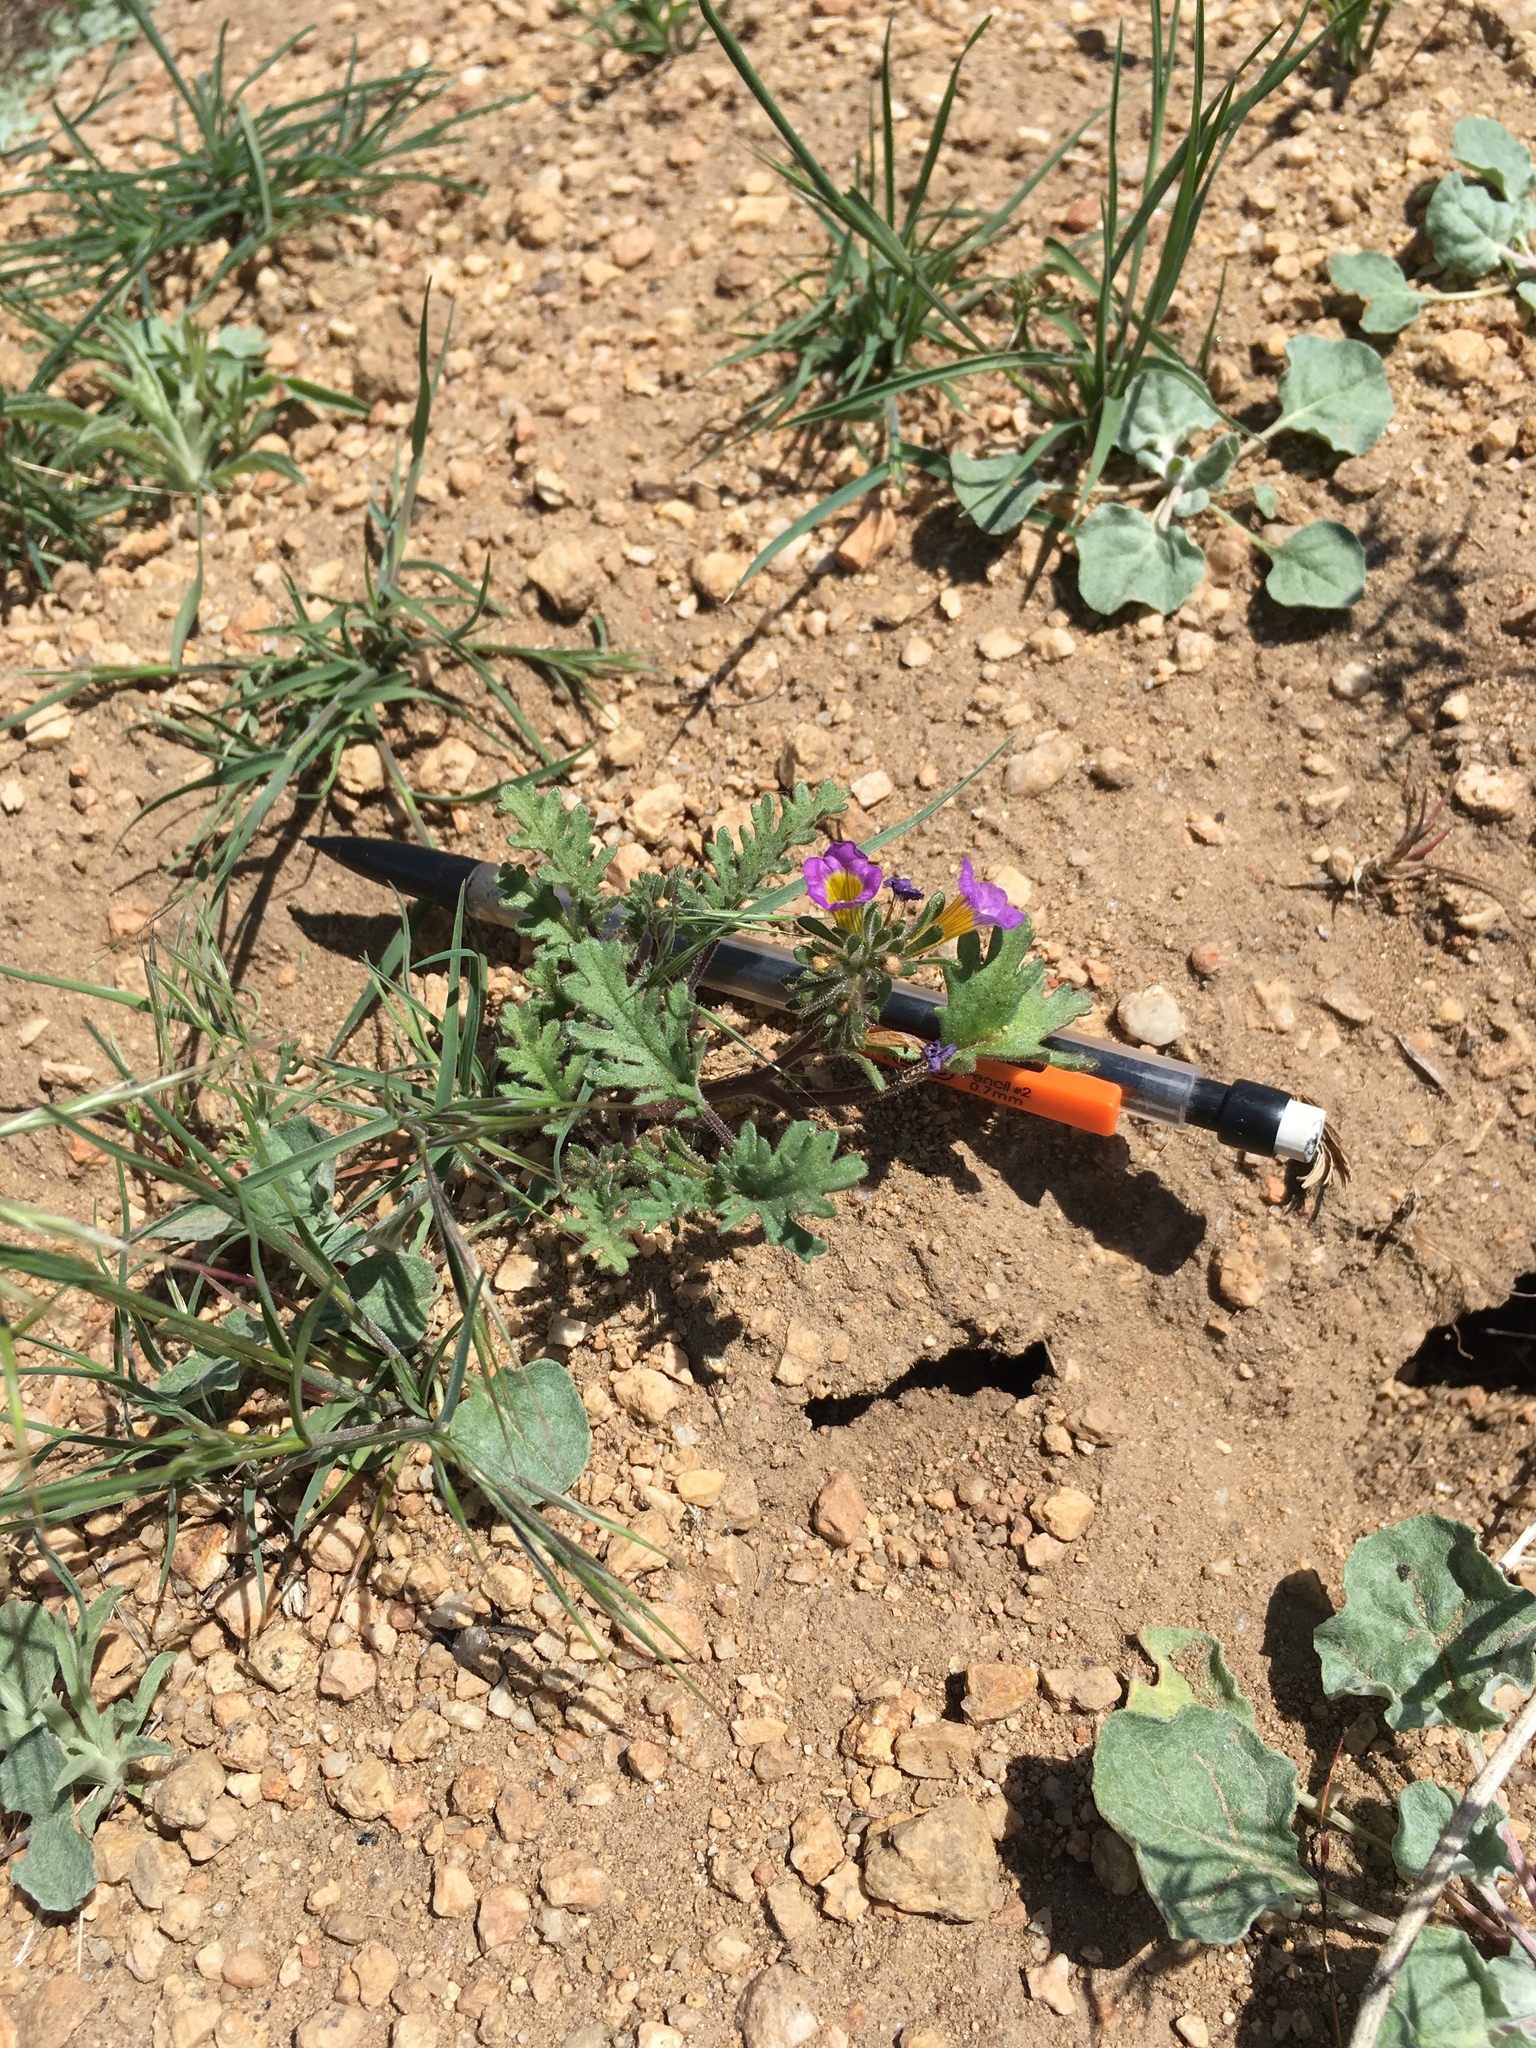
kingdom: Plantae
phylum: Tracheophyta
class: Magnoliopsida
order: Boraginales
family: Hydrophyllaceae
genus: Phacelia
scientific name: Phacelia bicolor
